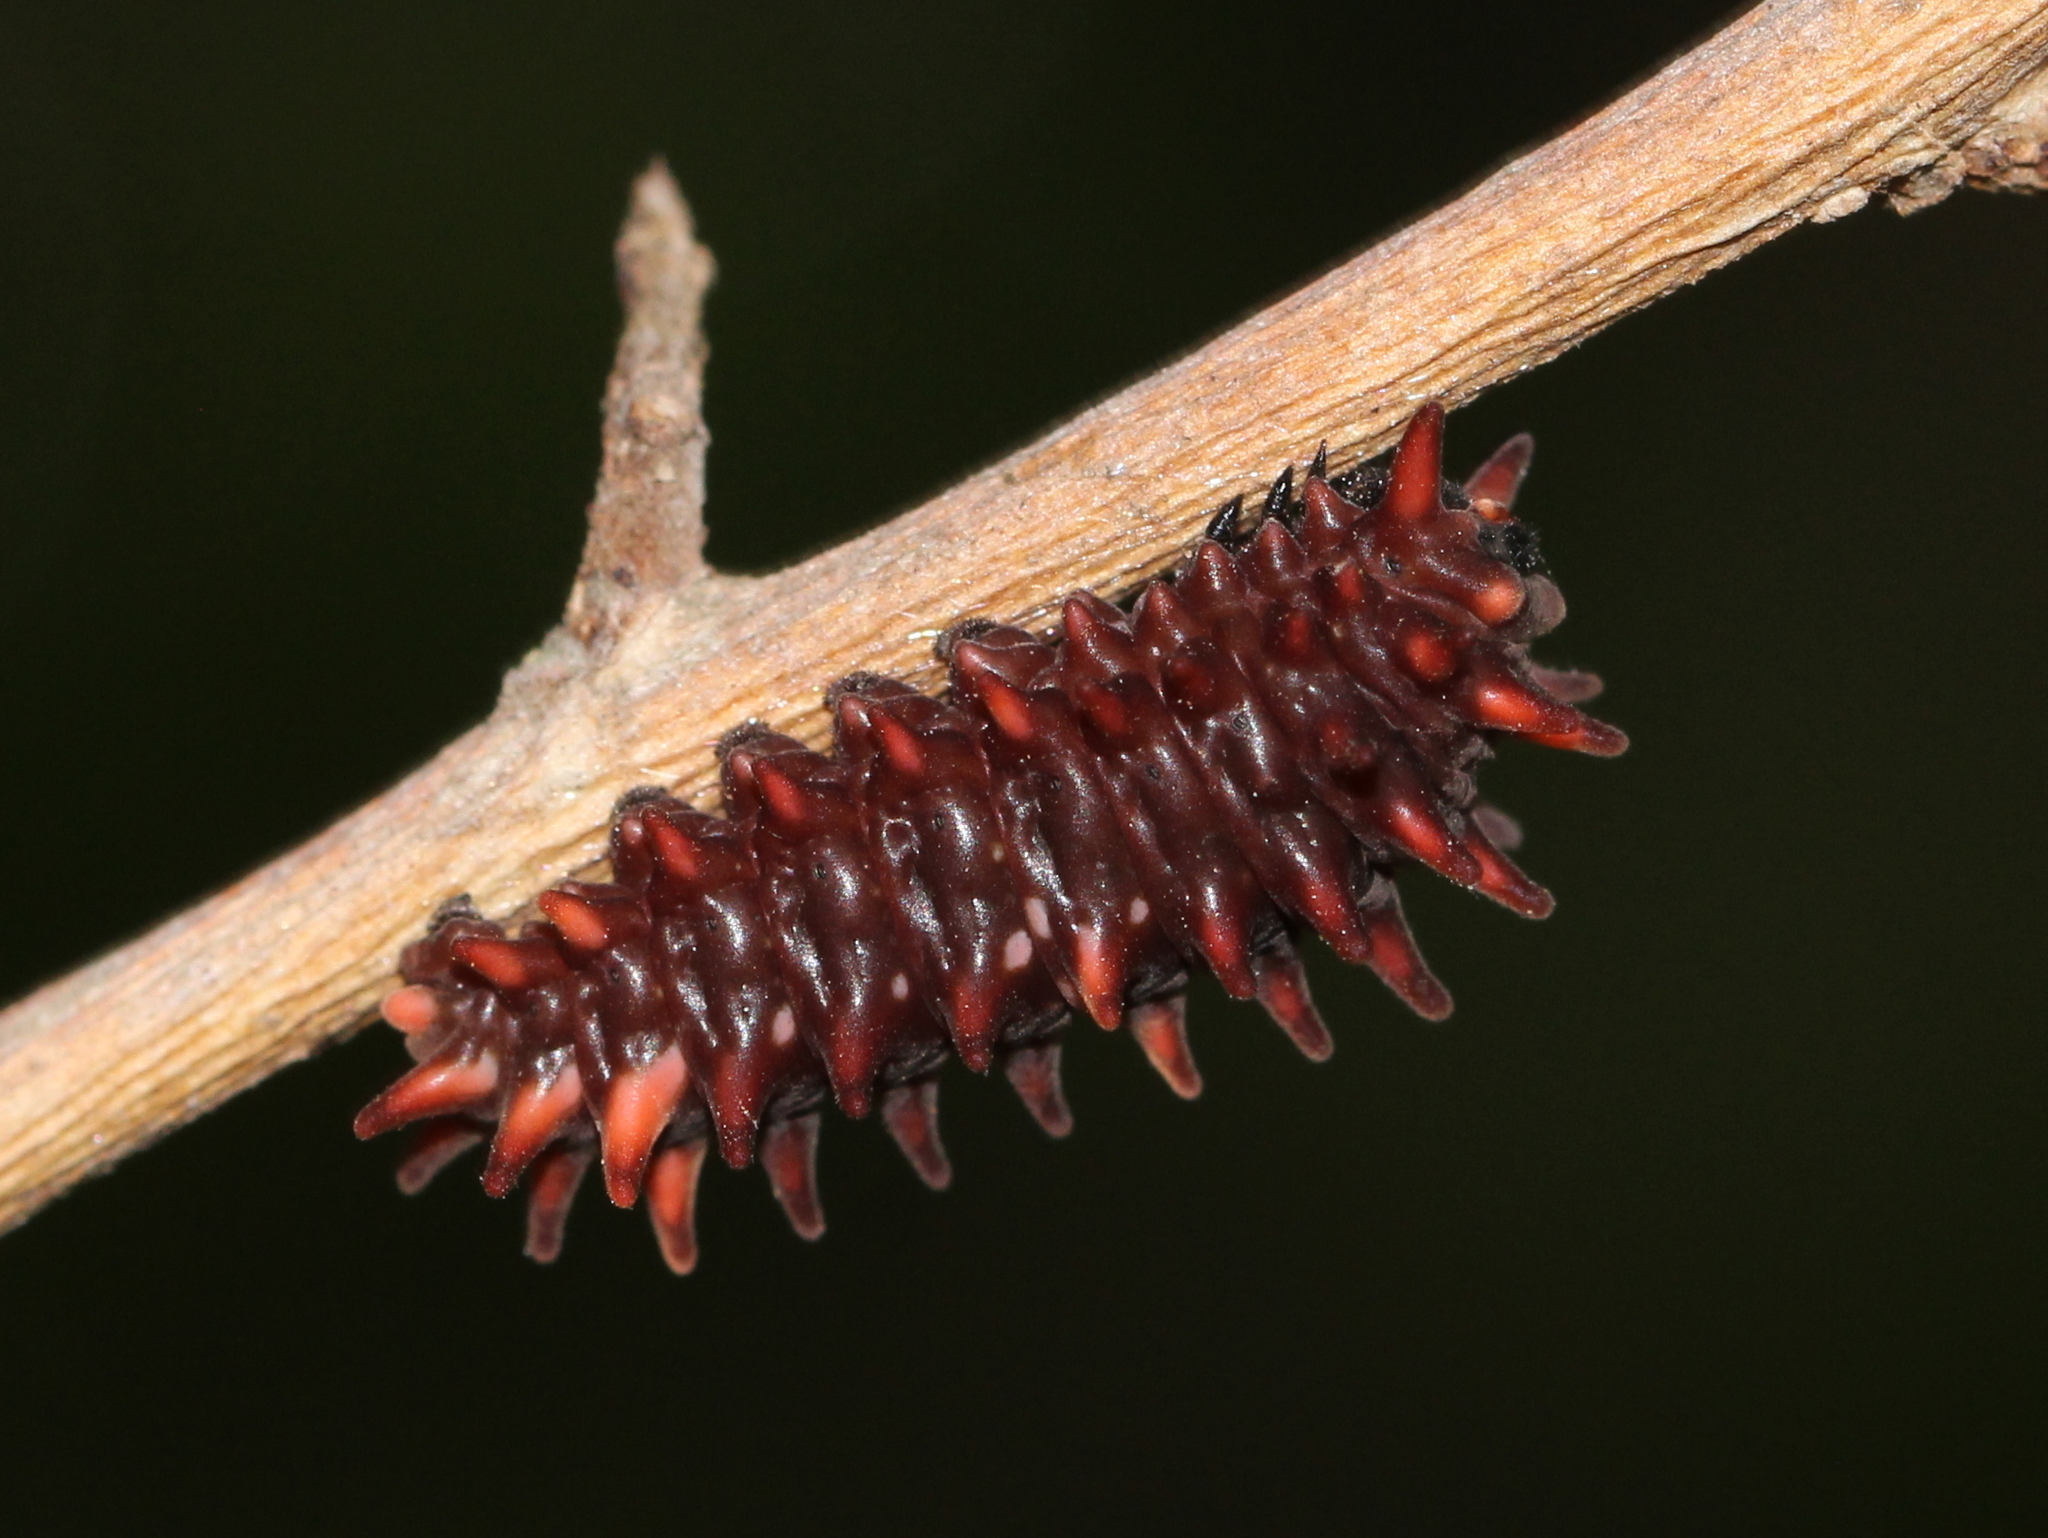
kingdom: Animalia
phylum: Arthropoda
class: Insecta
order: Lepidoptera
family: Papilionidae
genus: Pachliopta
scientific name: Pachliopta hector
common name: Crimson rose
